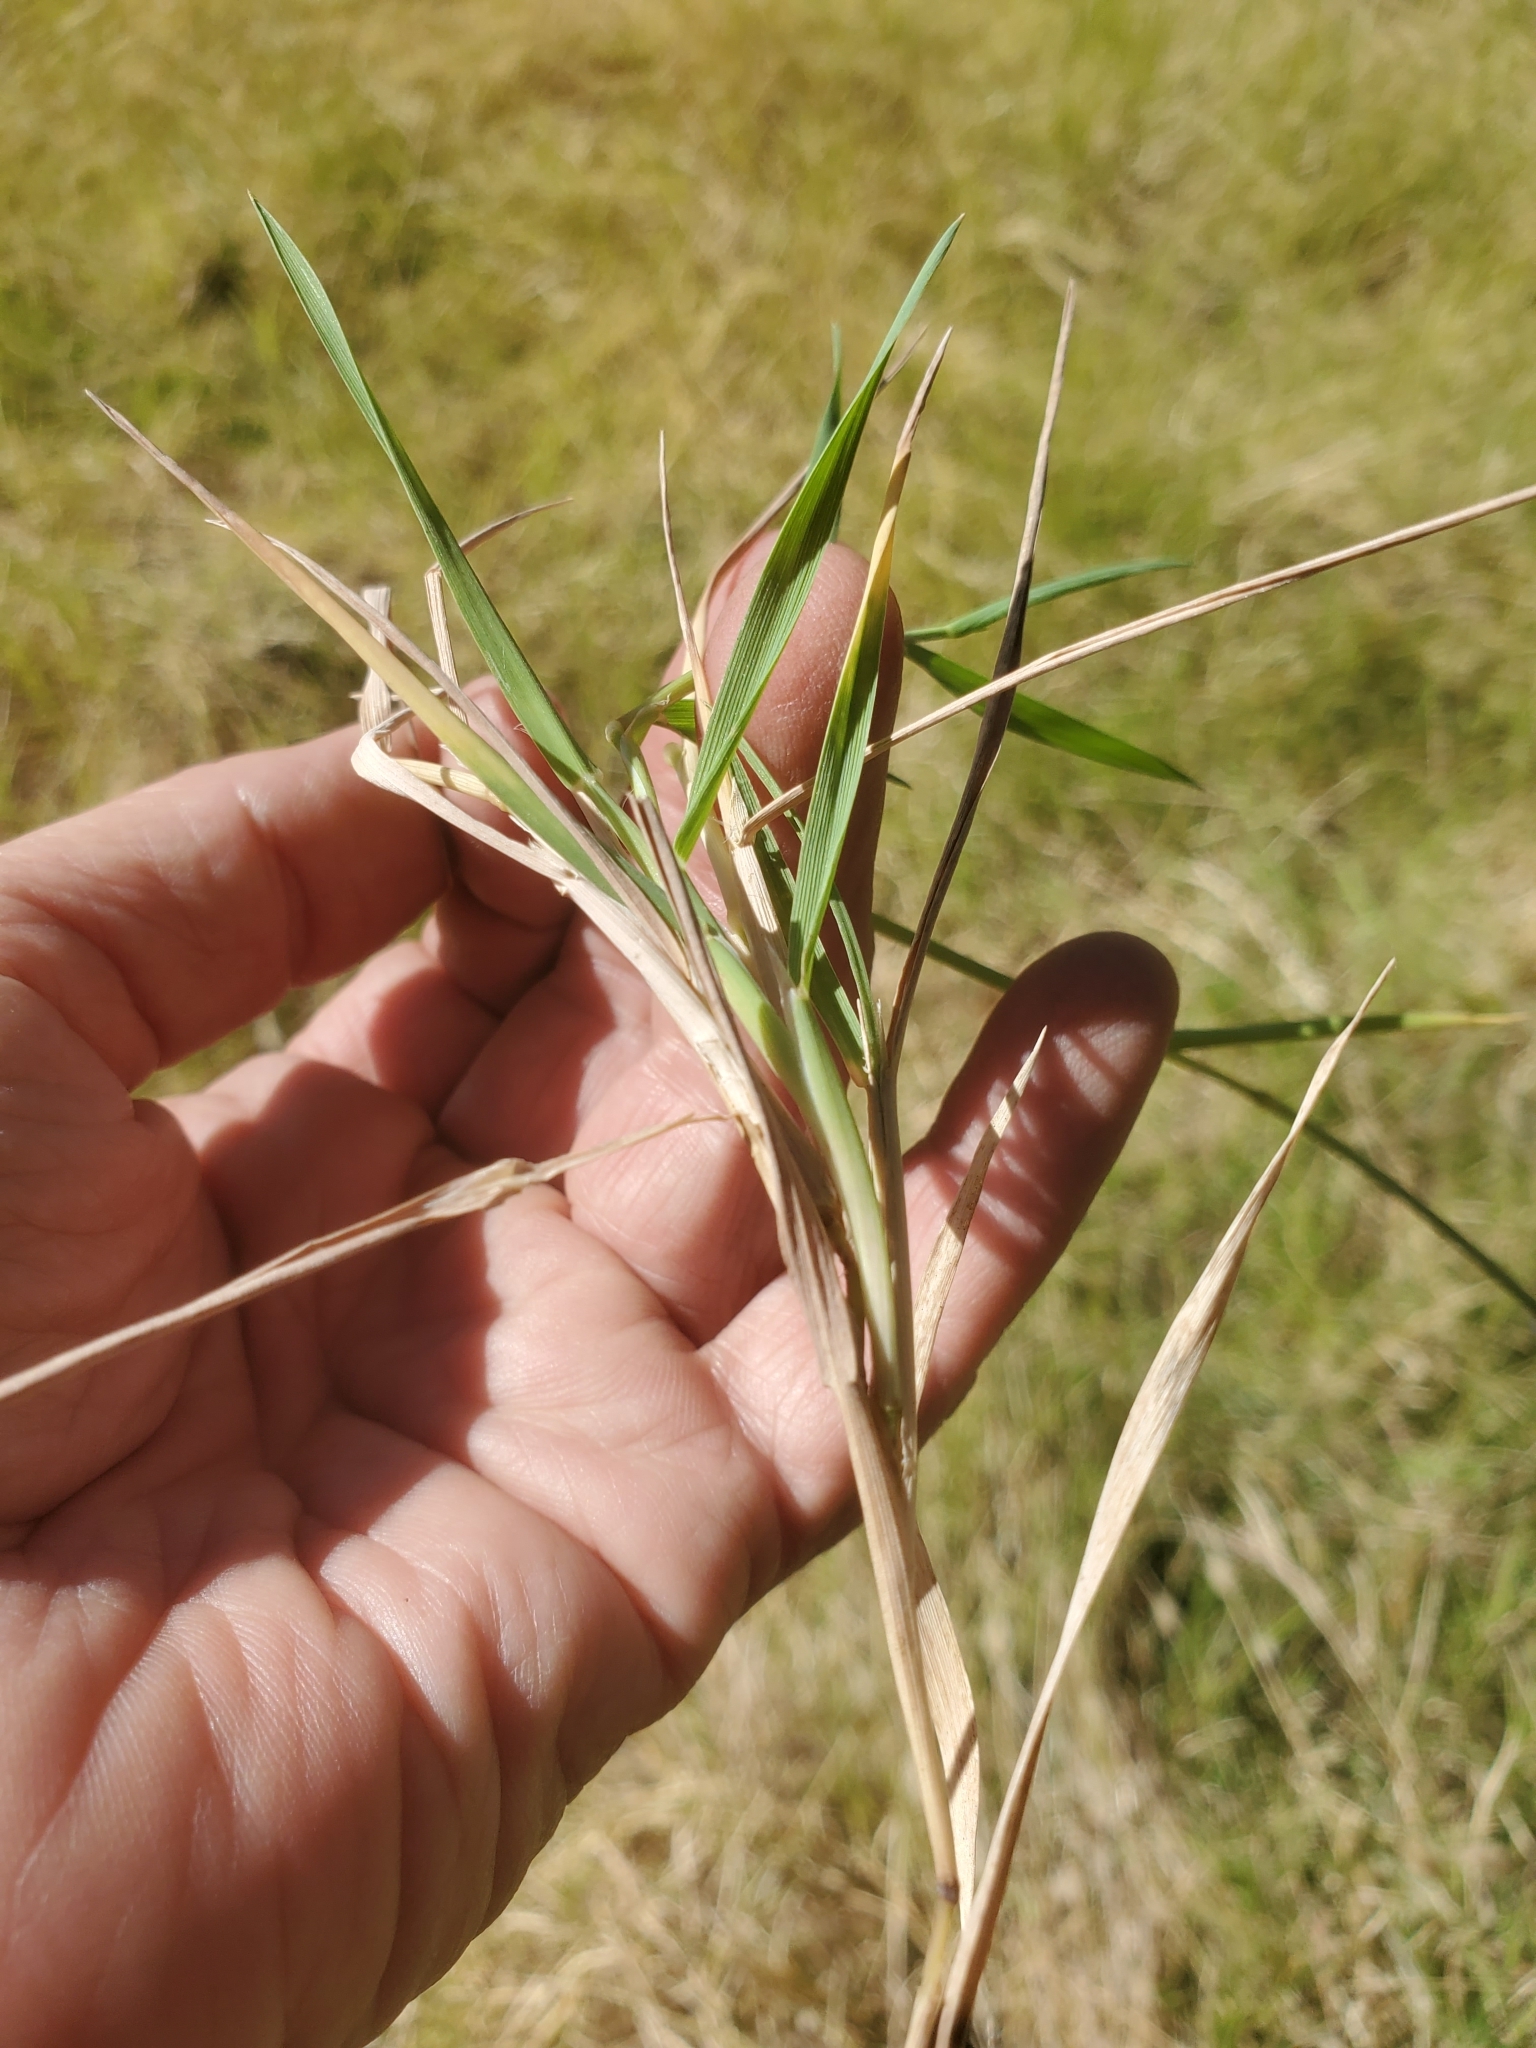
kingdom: Plantae
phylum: Tracheophyta
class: Liliopsida
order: Poales
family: Poaceae
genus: Polypogon
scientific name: Polypogon monspeliensis
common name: Annual rabbitsfoot grass
